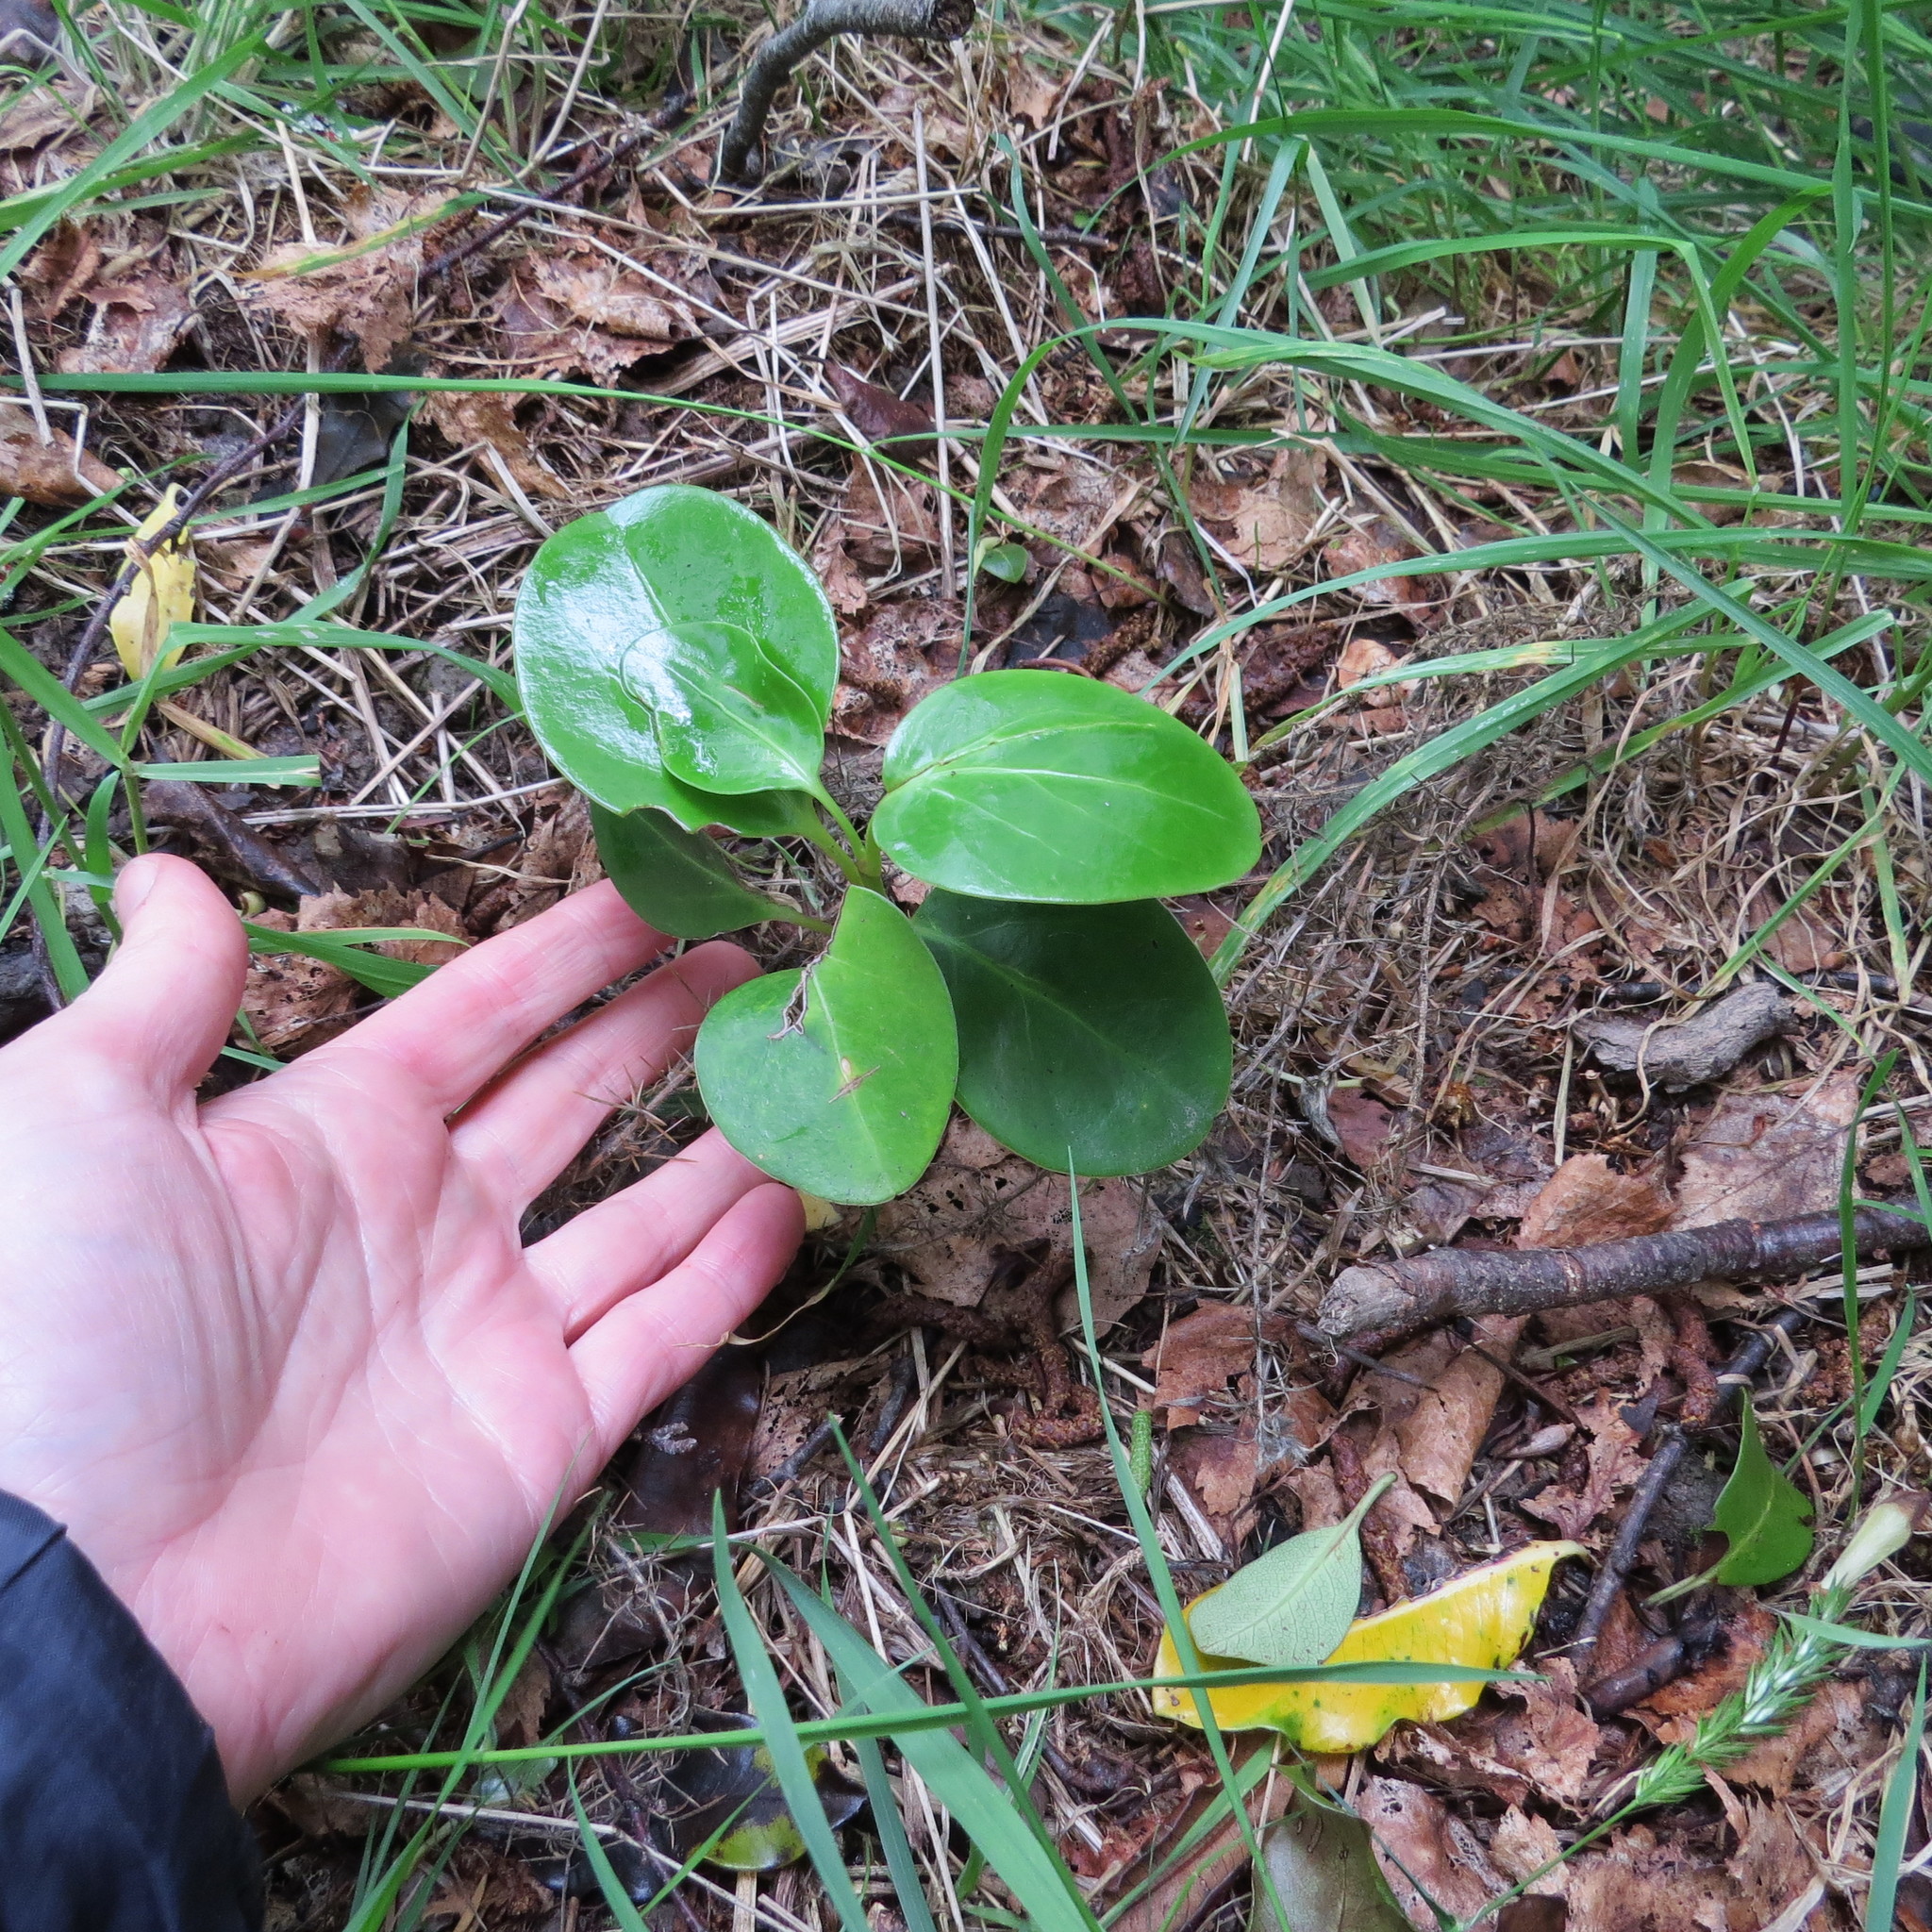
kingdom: Plantae
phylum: Tracheophyta
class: Magnoliopsida
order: Apiales
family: Griseliniaceae
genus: Griselinia
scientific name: Griselinia littoralis
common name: New zealand broadleaf
